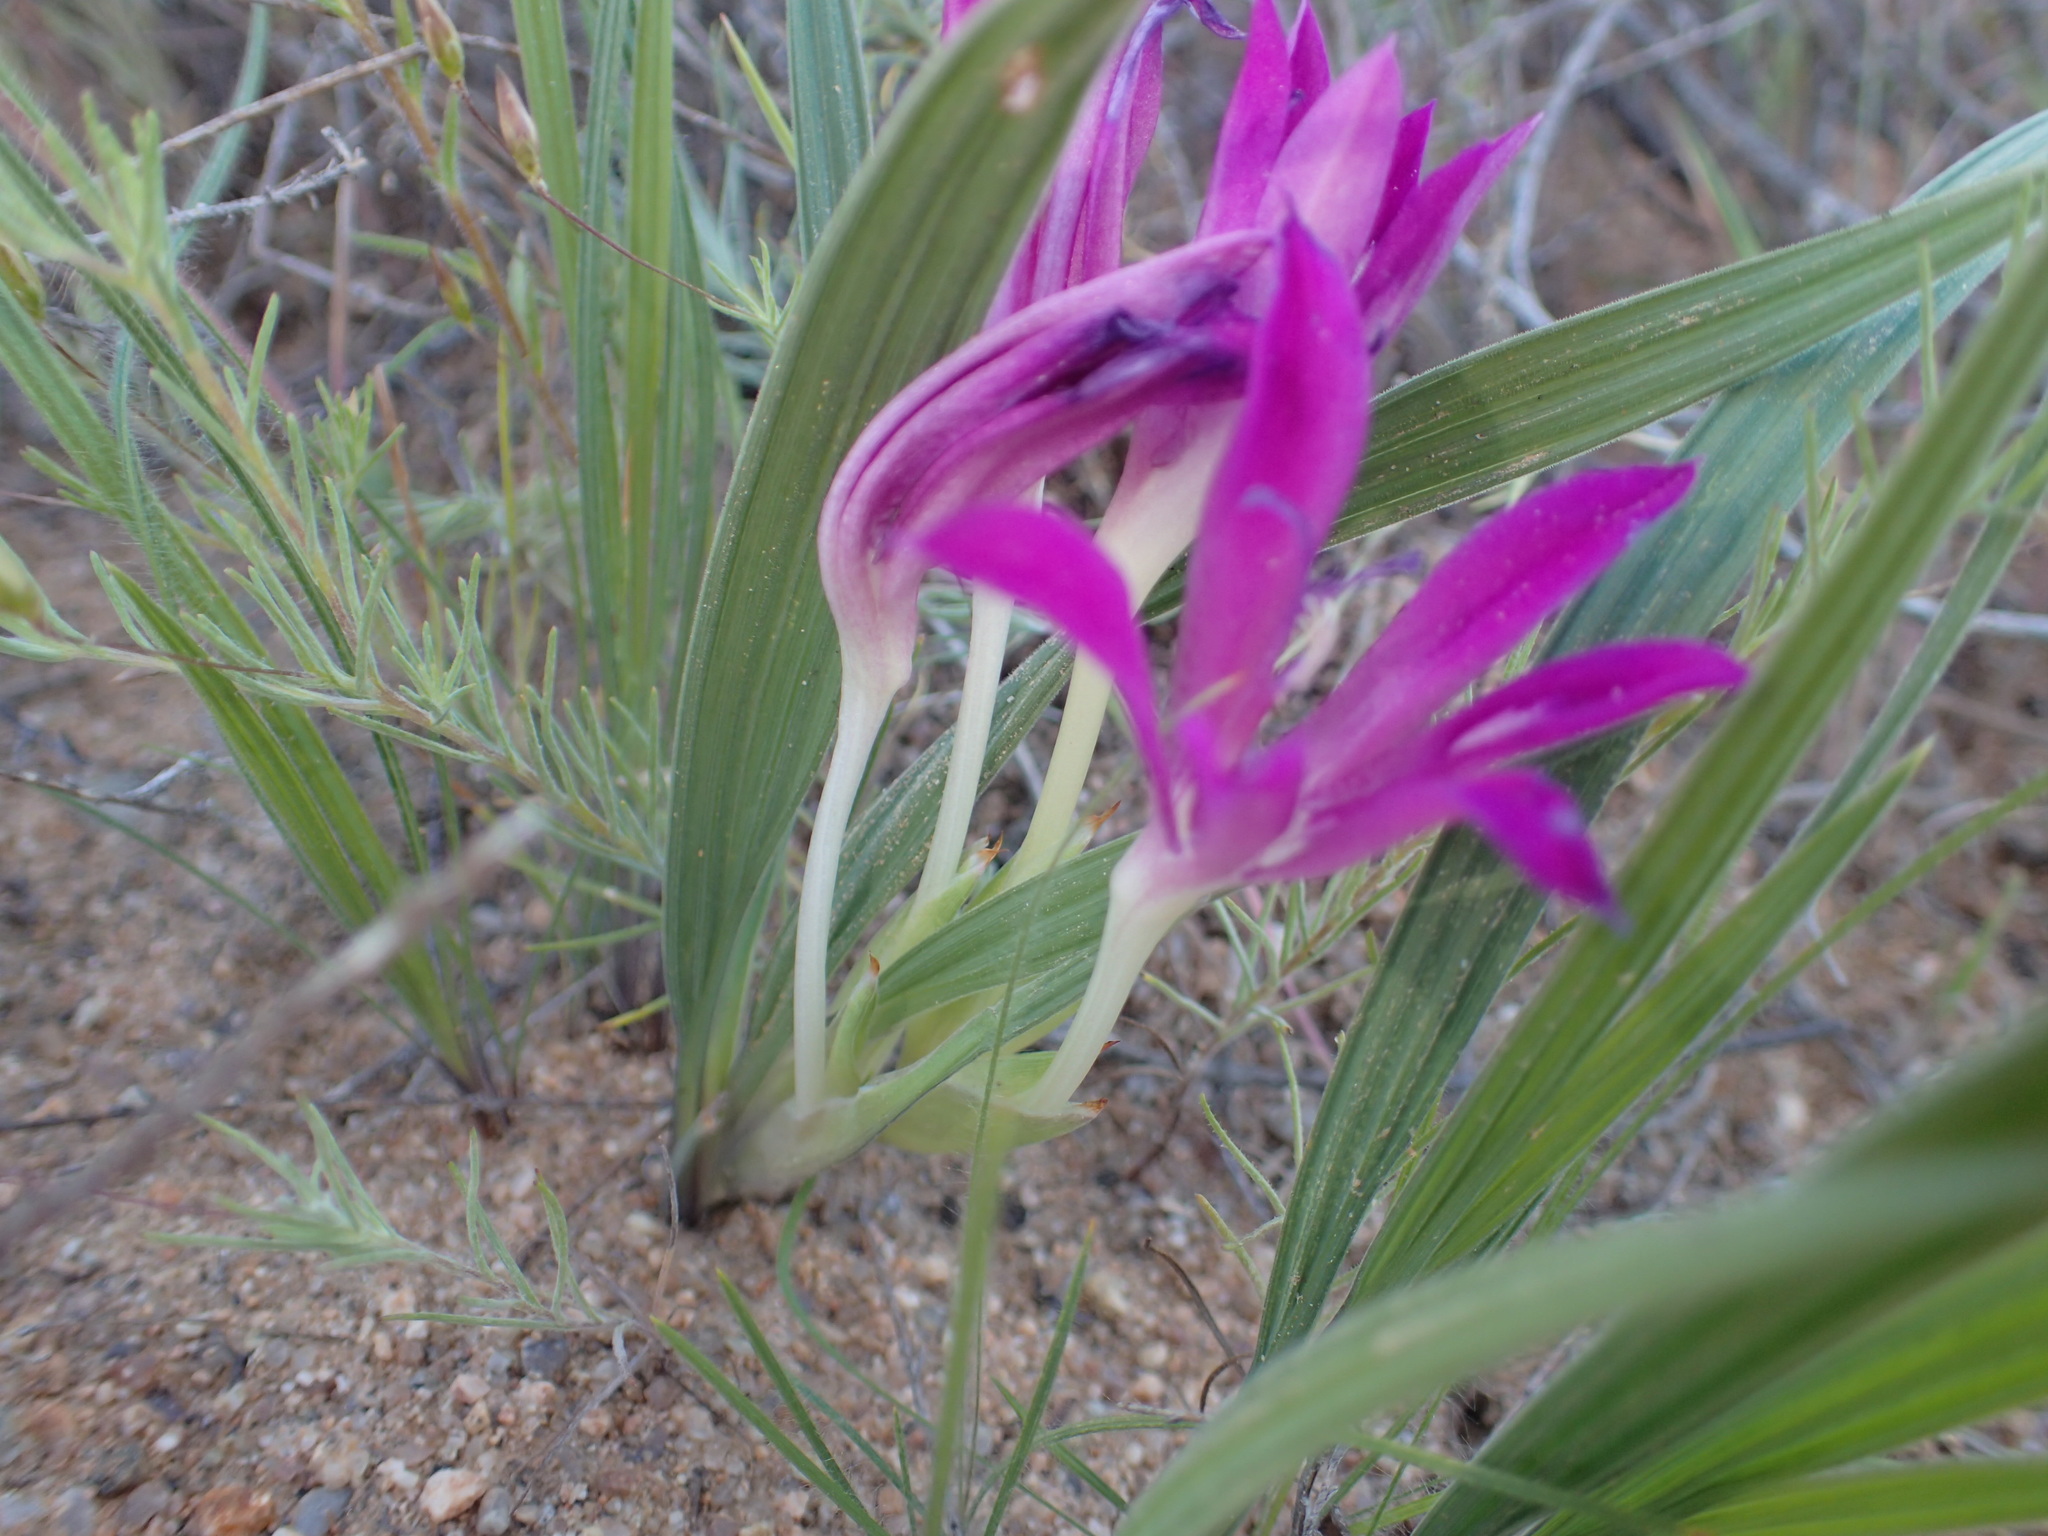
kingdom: Plantae
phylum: Tracheophyta
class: Liliopsida
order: Asparagales
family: Iridaceae
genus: Babiana
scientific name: Babiana curviscapa
